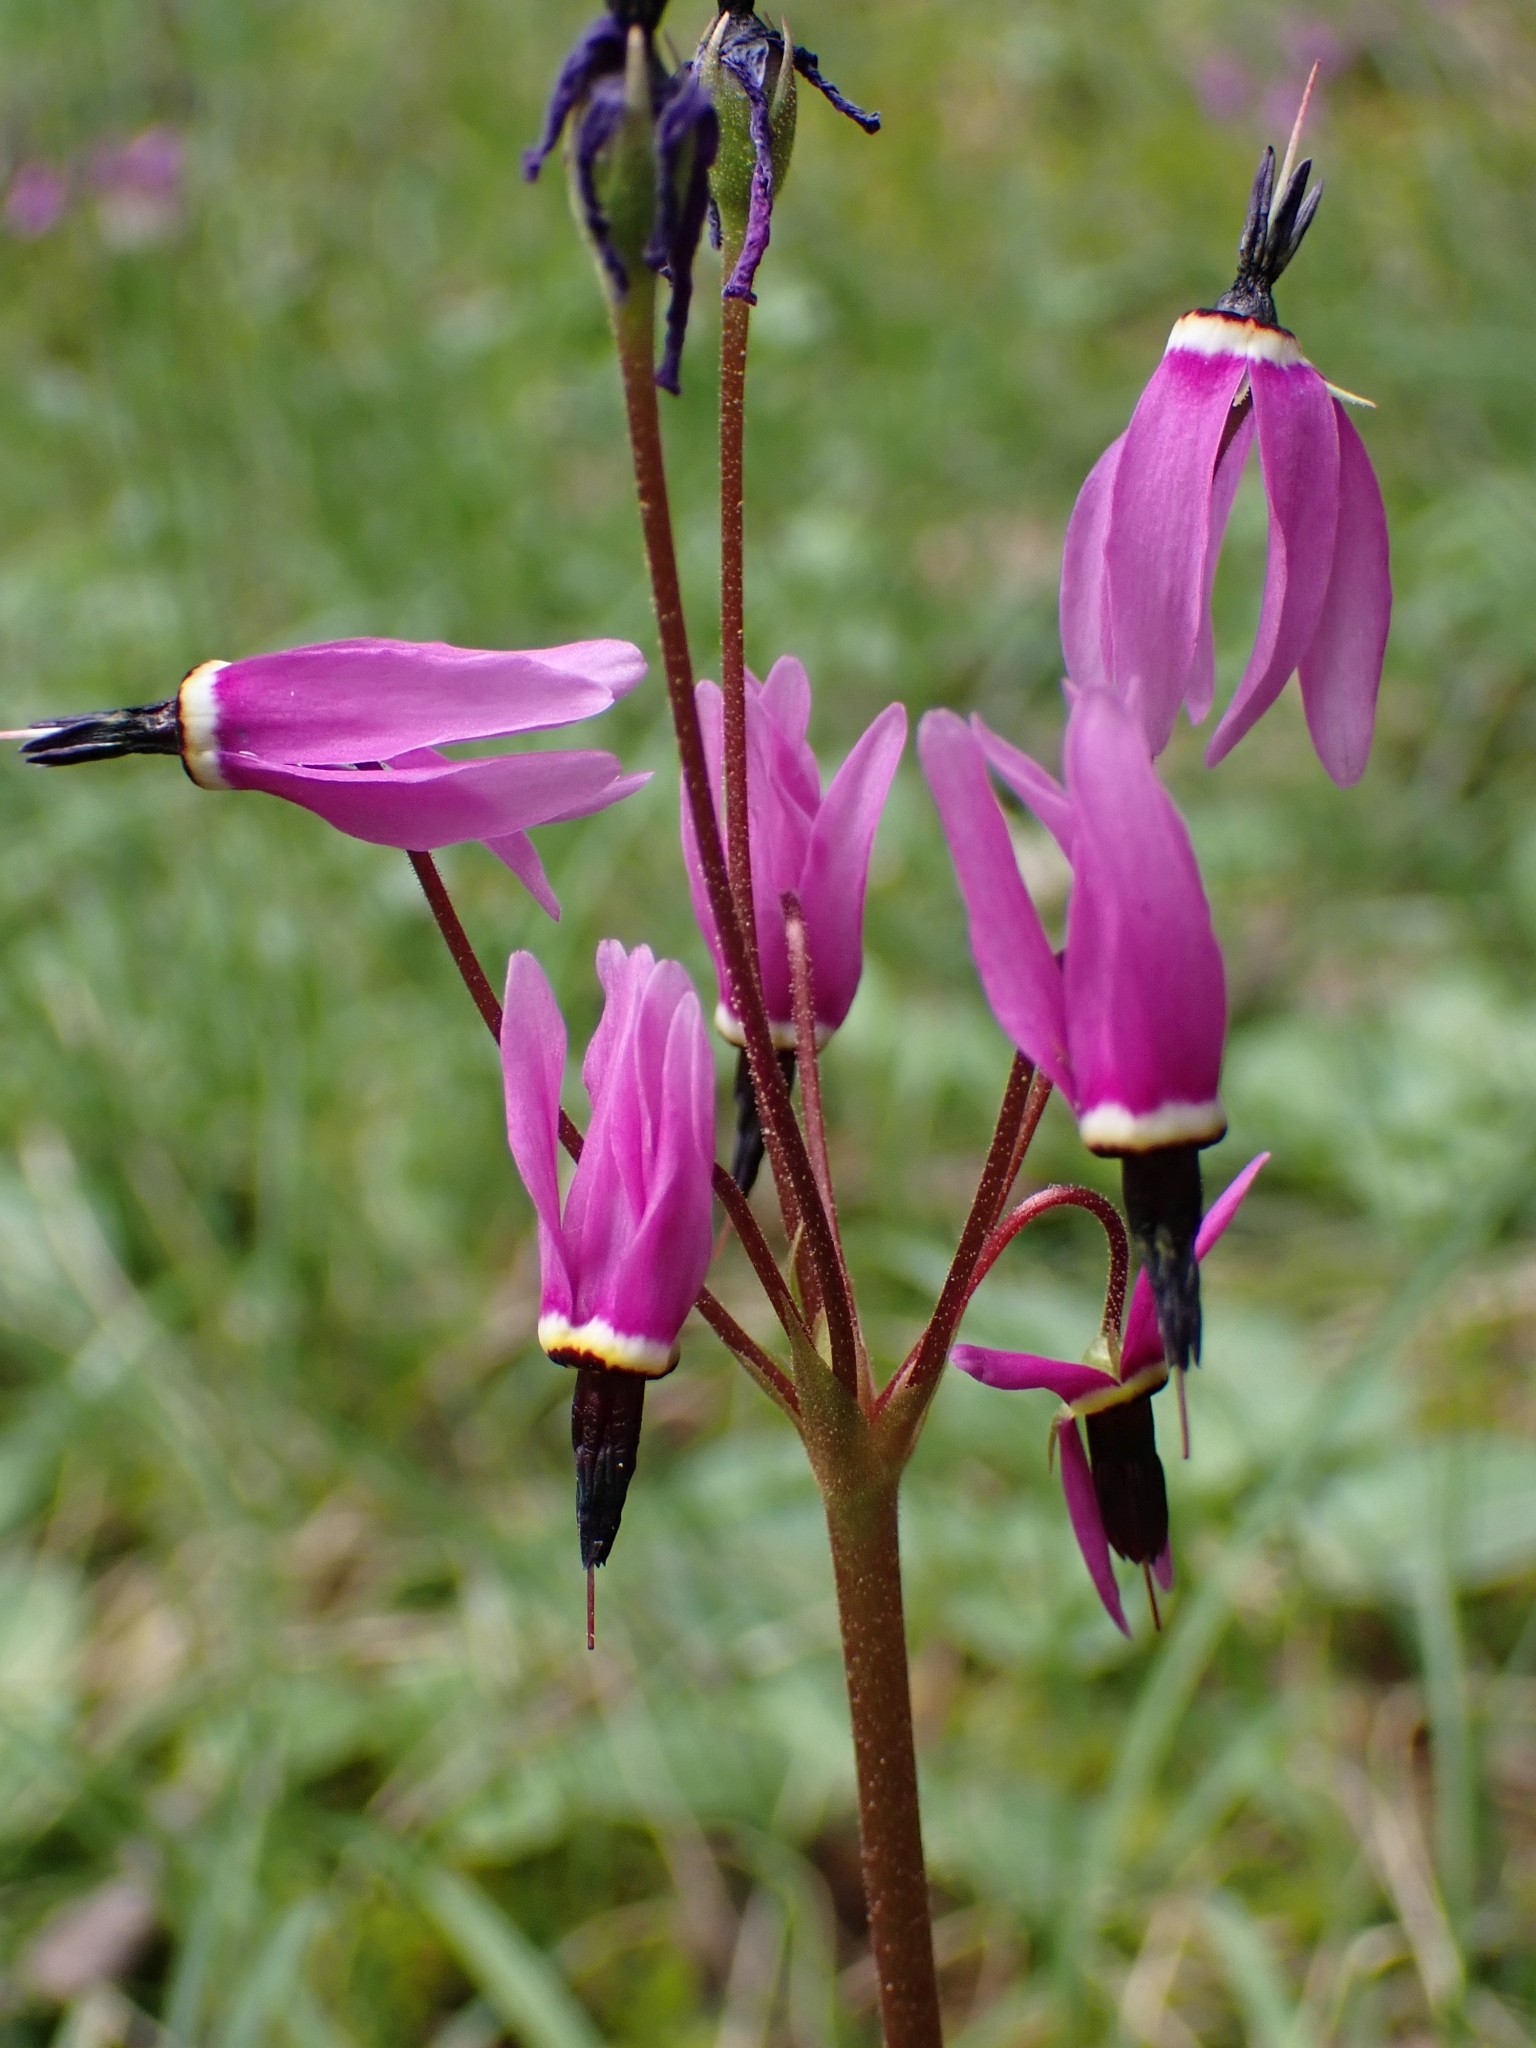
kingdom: Plantae
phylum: Tracheophyta
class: Magnoliopsida
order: Ericales
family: Primulaceae
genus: Dodecatheon
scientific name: Dodecatheon hendersonii
